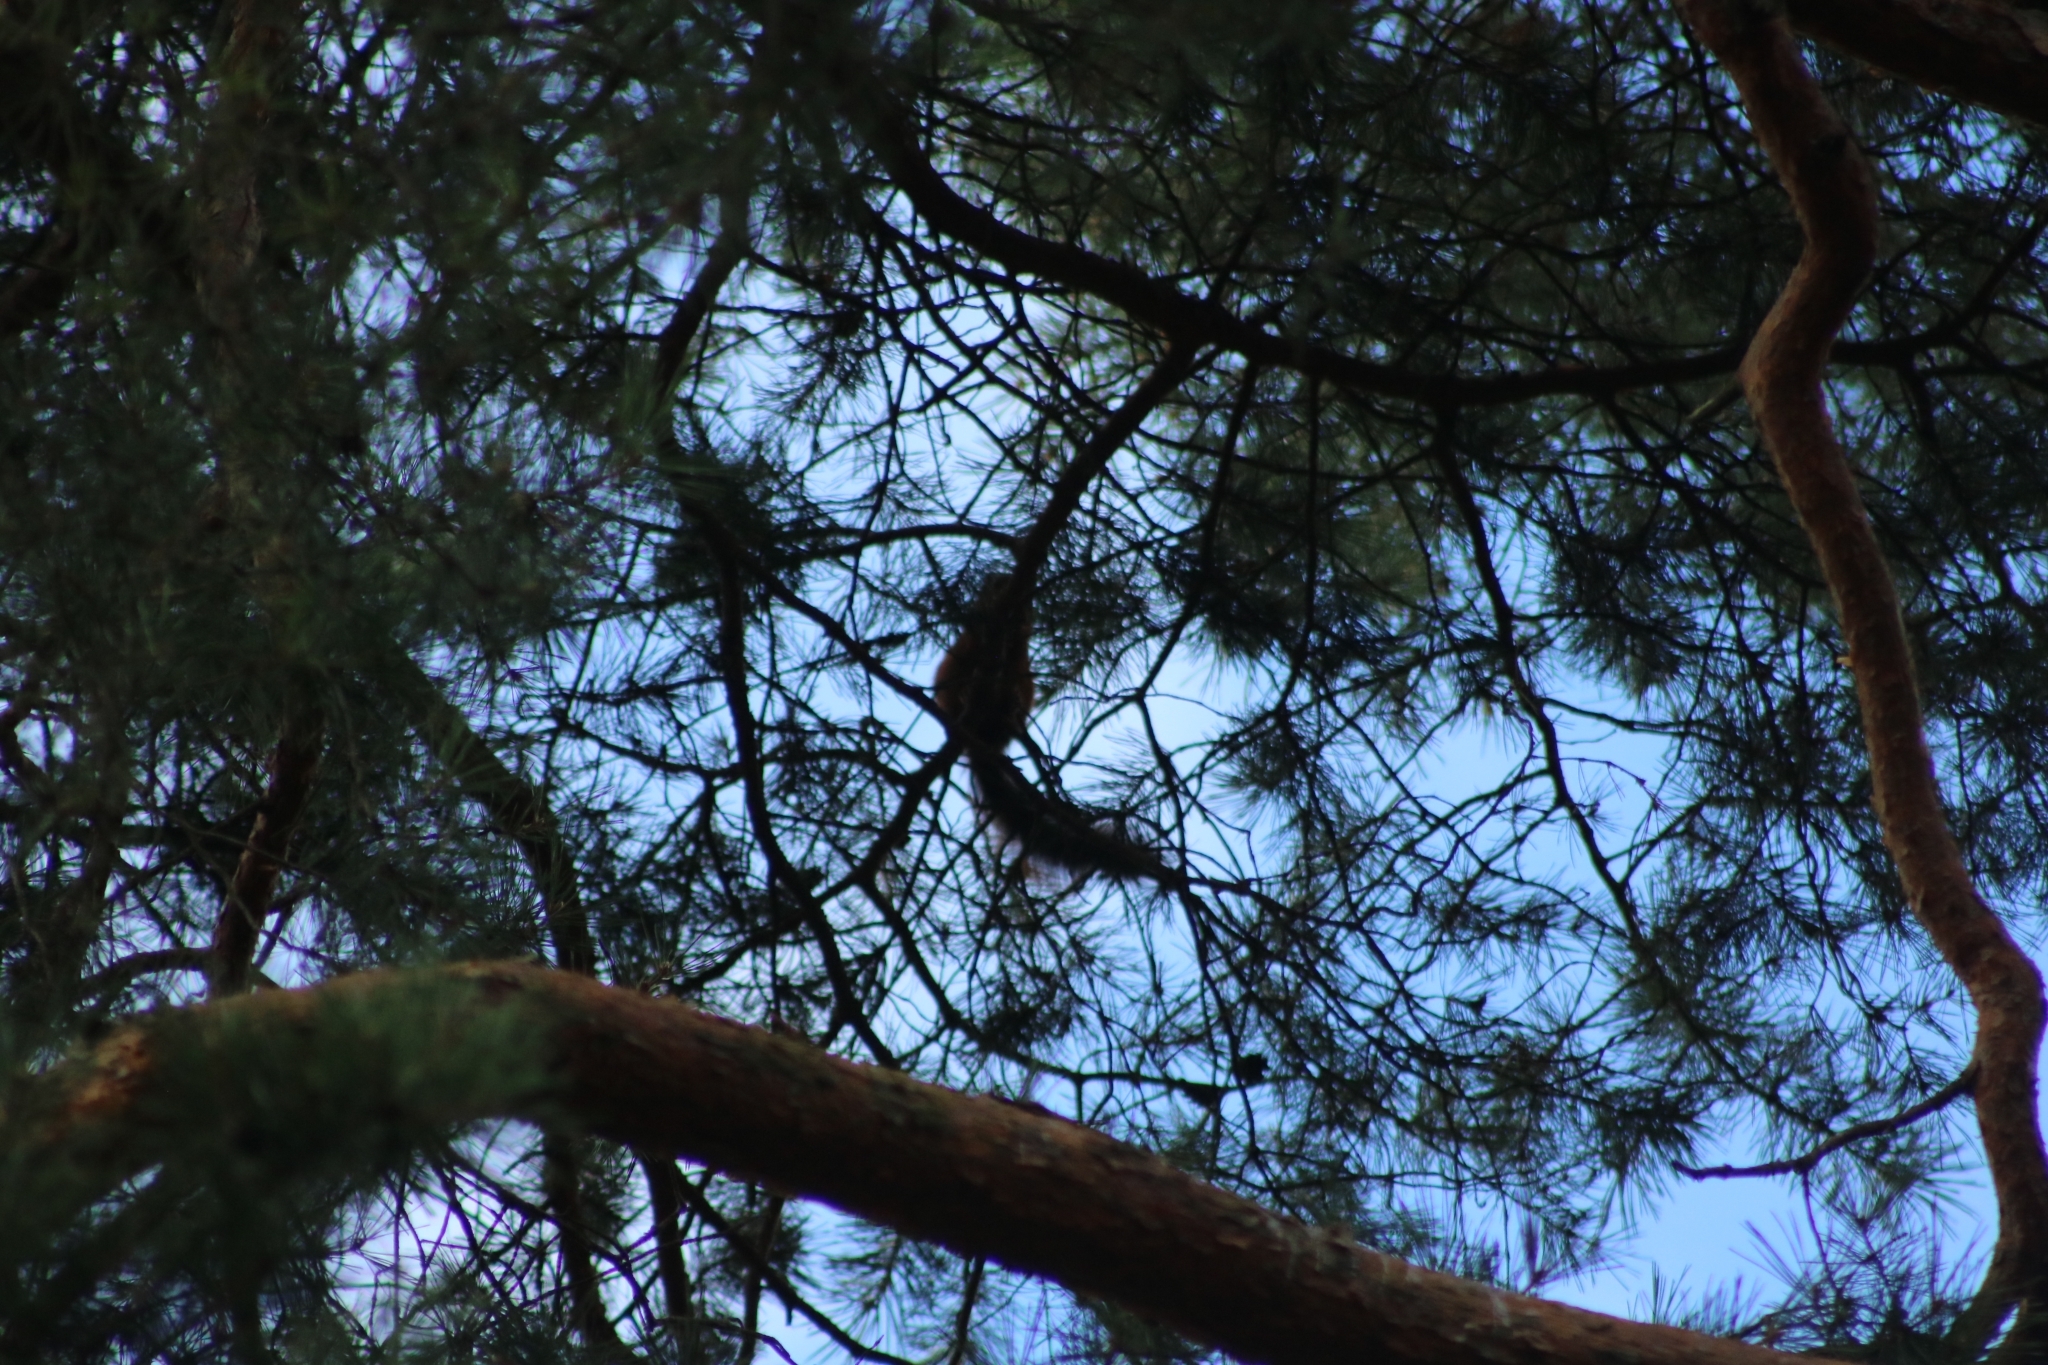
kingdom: Animalia
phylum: Chordata
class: Mammalia
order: Rodentia
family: Sciuridae
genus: Sciurus
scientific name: Sciurus vulgaris
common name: Eurasian red squirrel
